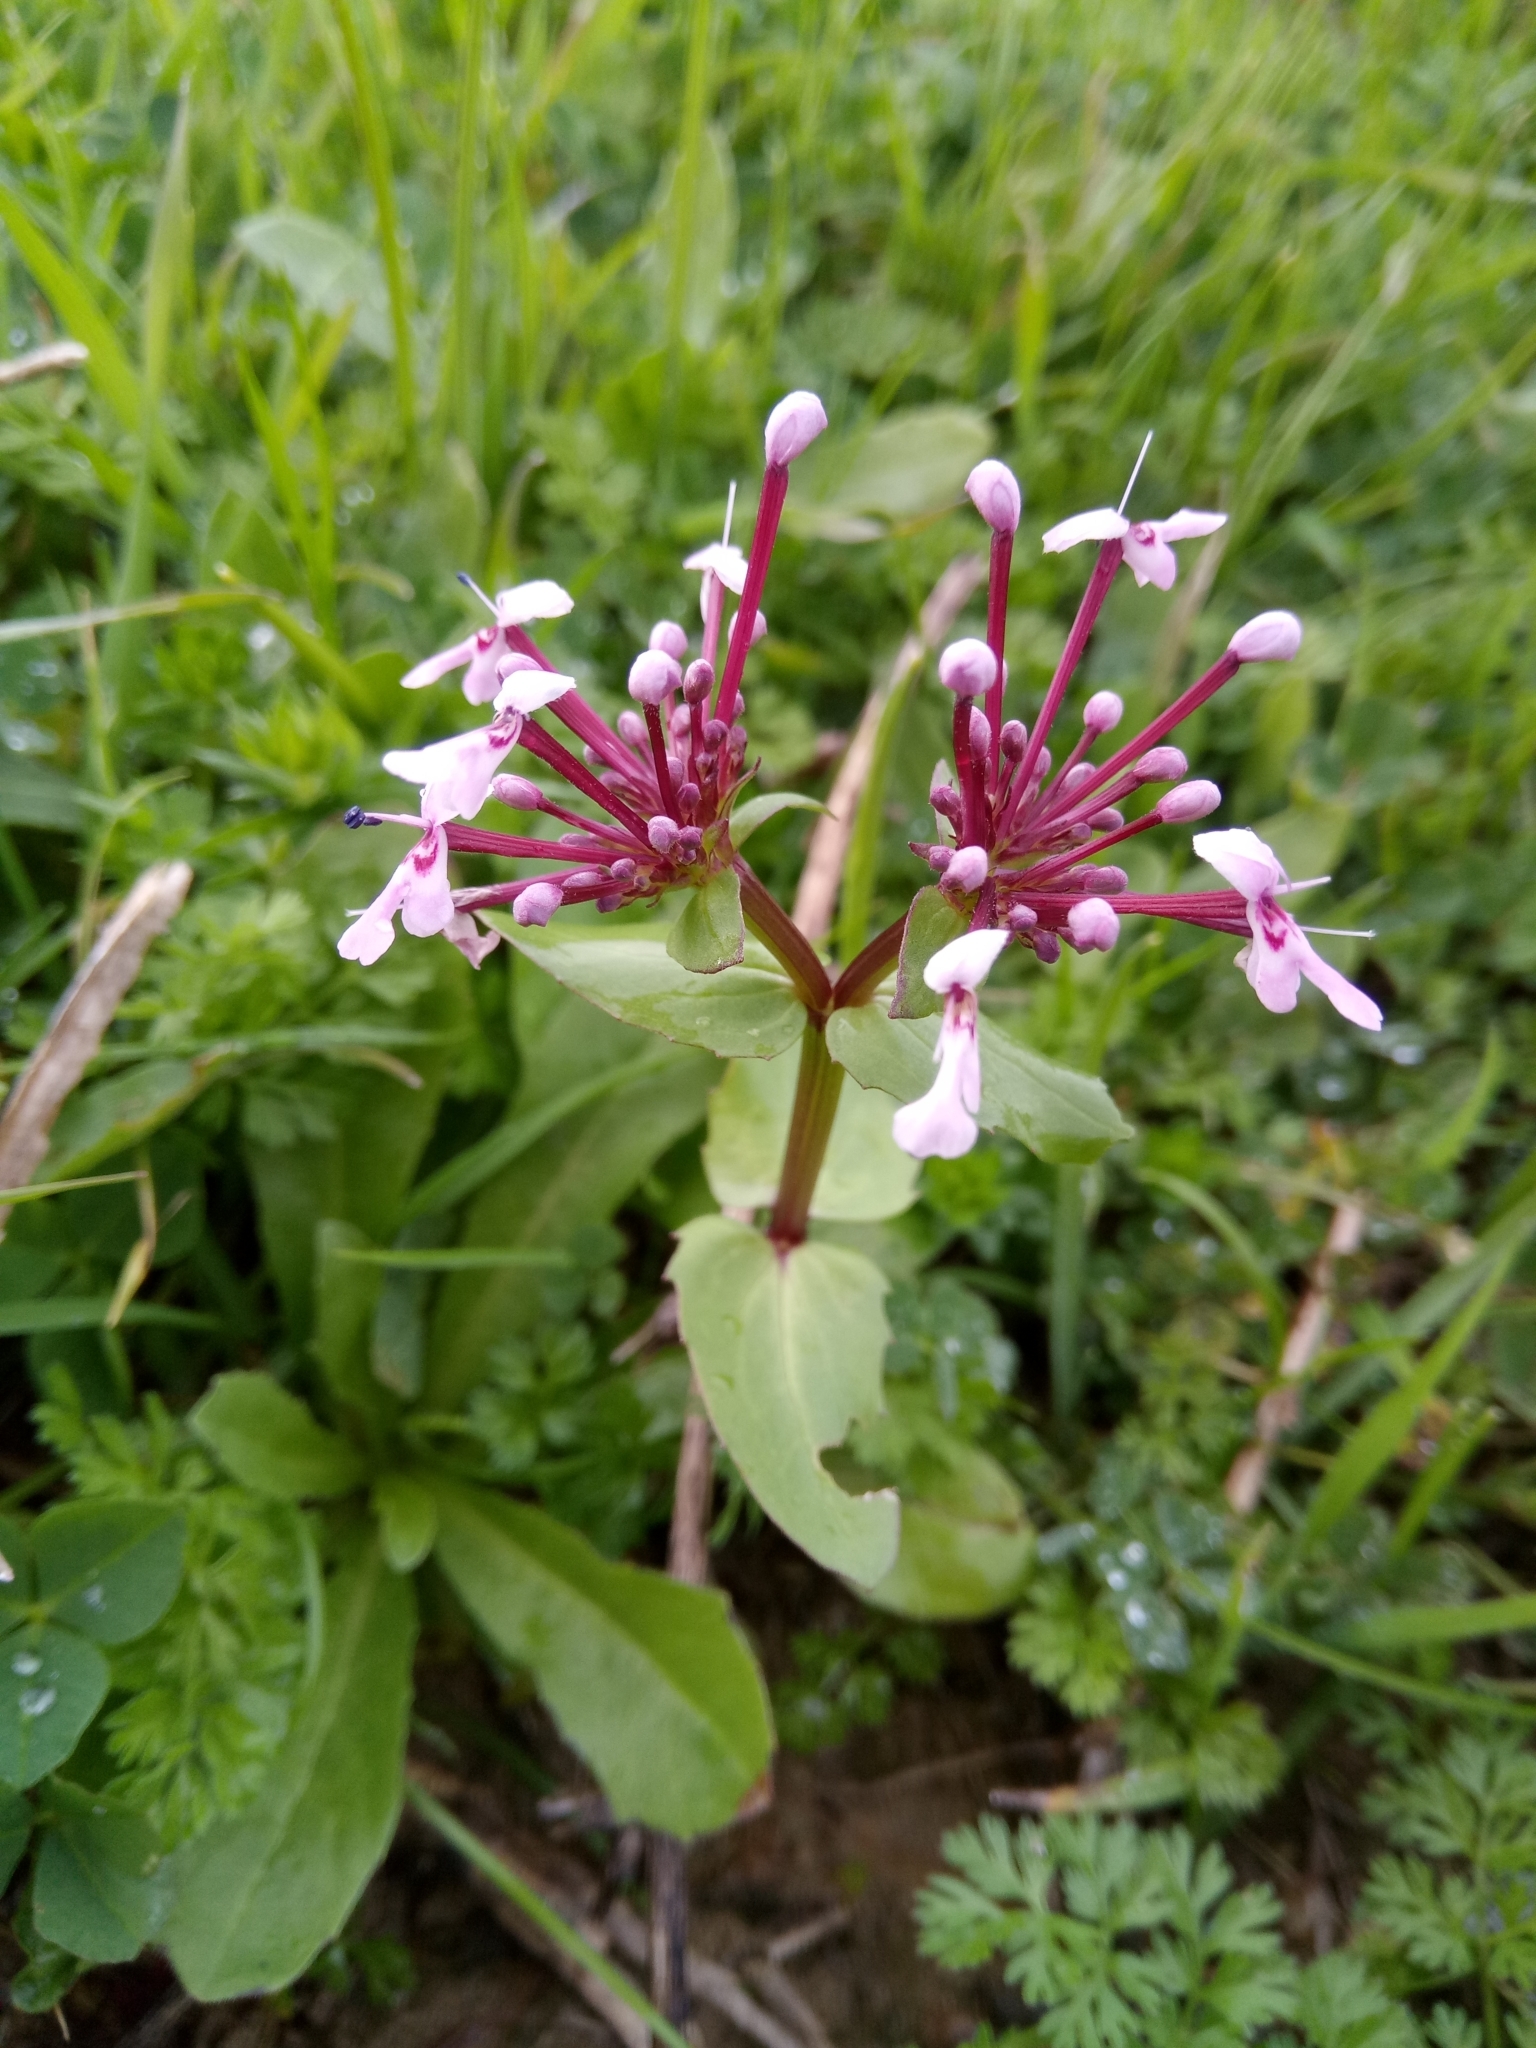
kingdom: Plantae
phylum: Tracheophyta
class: Magnoliopsida
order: Dipsacales
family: Caprifoliaceae
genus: Fedia
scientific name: Fedia graciliflora
